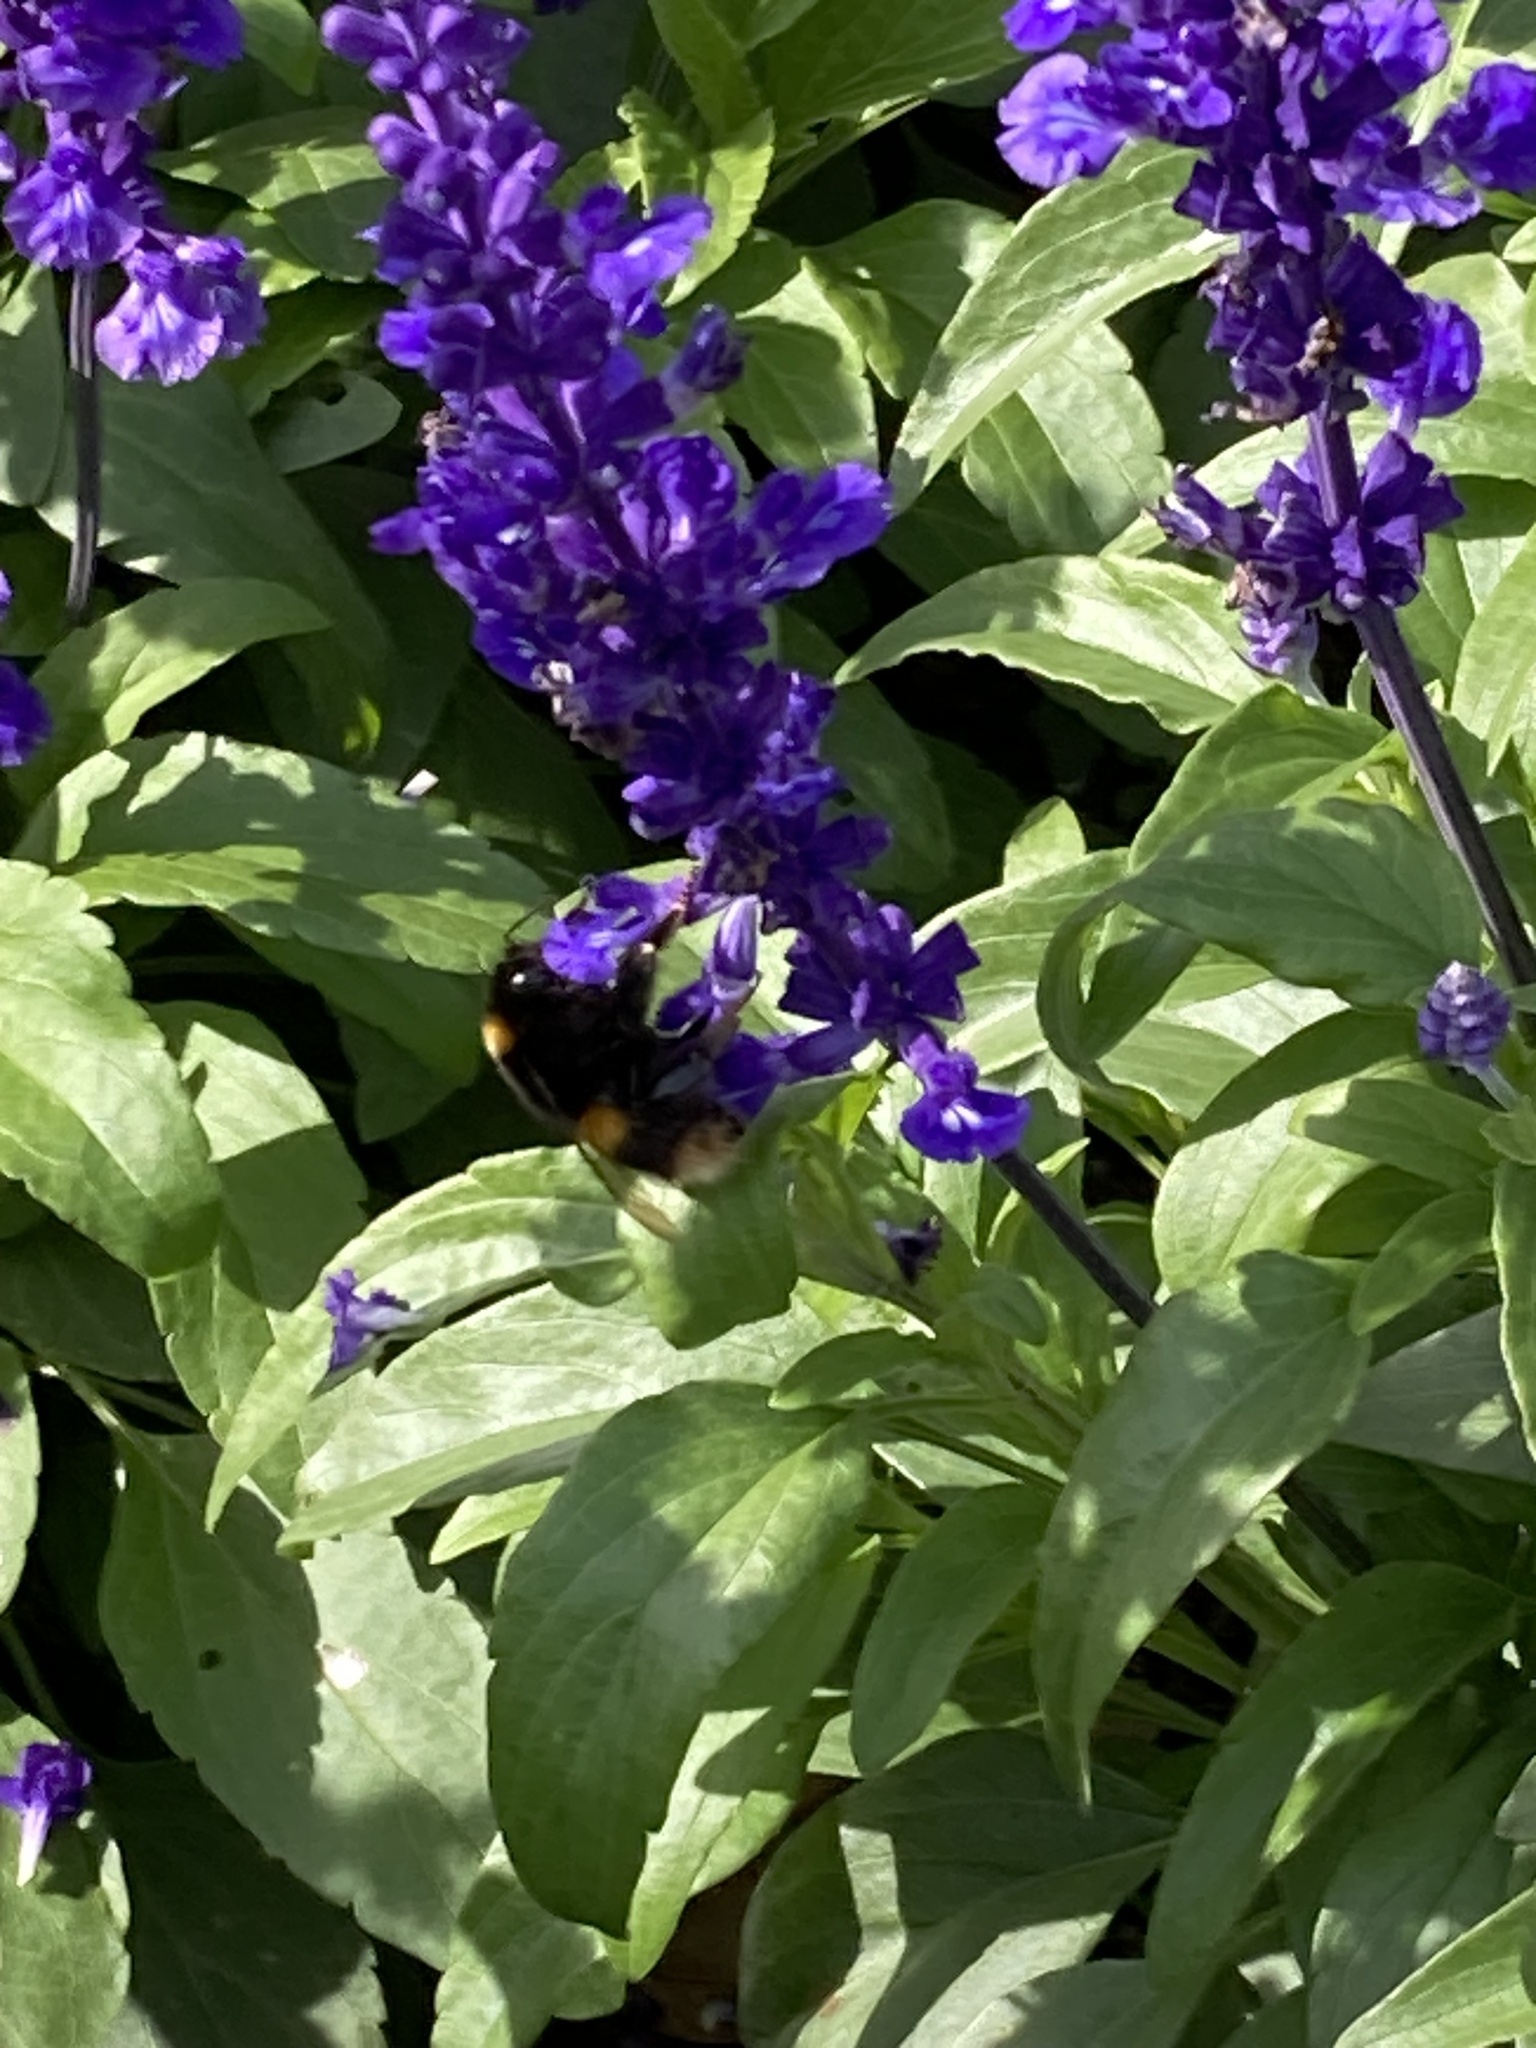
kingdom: Animalia
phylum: Arthropoda
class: Insecta
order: Hymenoptera
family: Apidae
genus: Bombus
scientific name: Bombus terrestris
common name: Buff-tailed bumblebee
